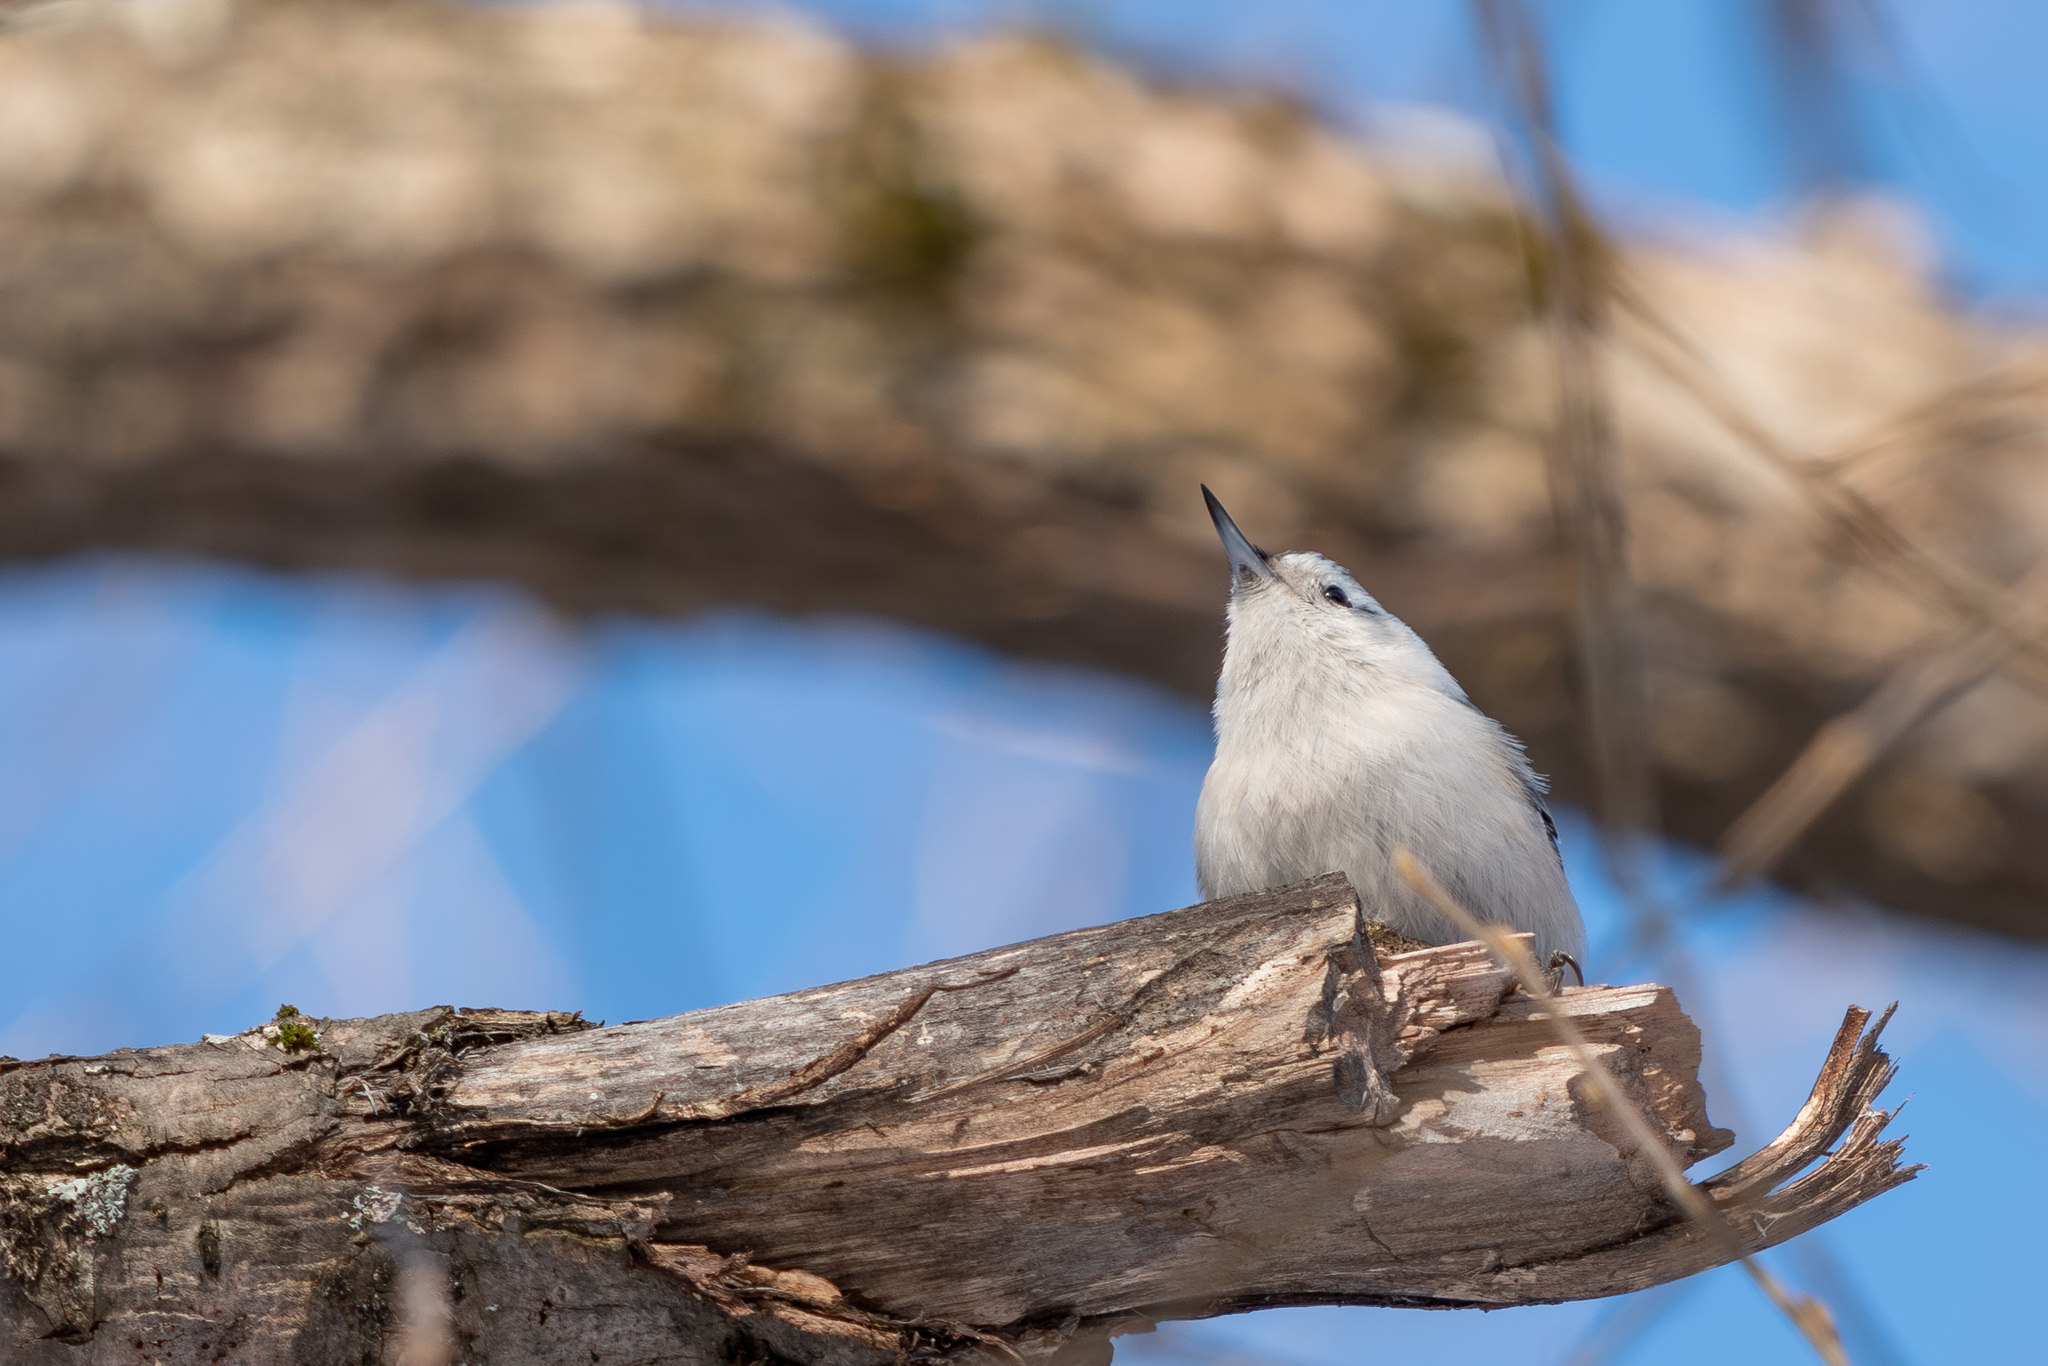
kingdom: Animalia
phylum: Chordata
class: Aves
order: Passeriformes
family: Sittidae
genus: Sitta
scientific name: Sitta carolinensis
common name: White-breasted nuthatch
